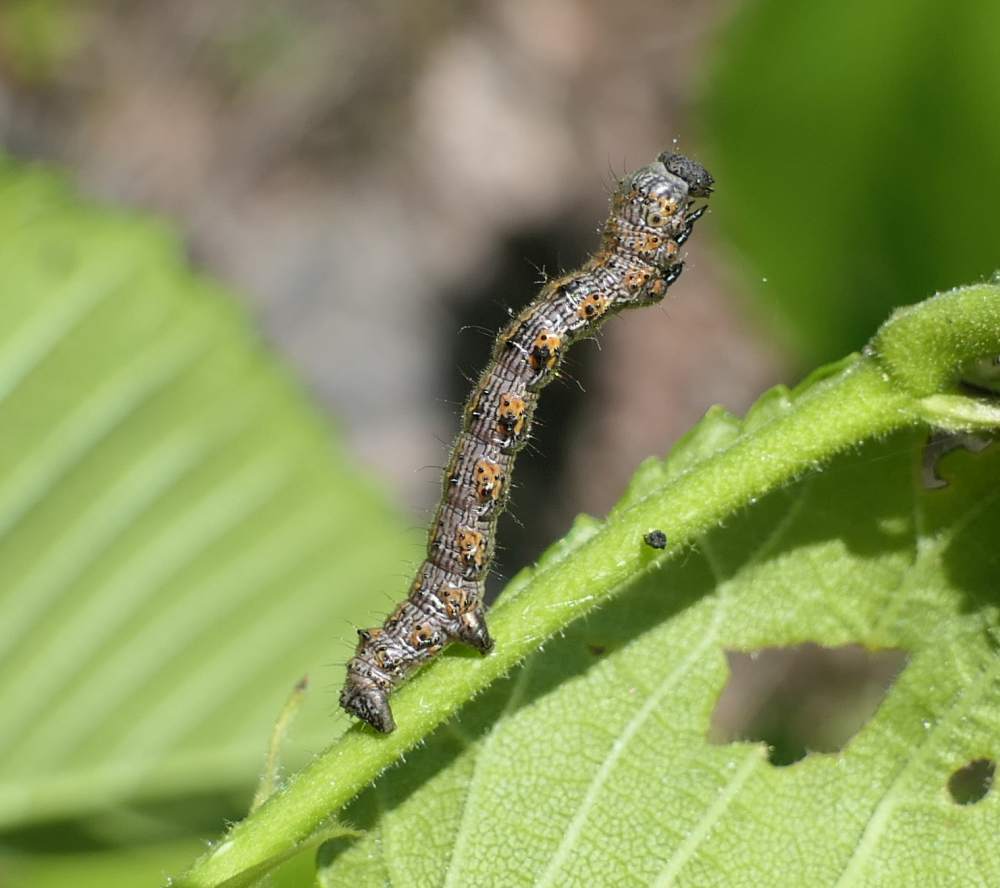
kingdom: Animalia
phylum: Arthropoda
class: Insecta
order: Lepidoptera
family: Geometridae
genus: Phigalia
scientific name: Phigalia titea
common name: Spiny looper
